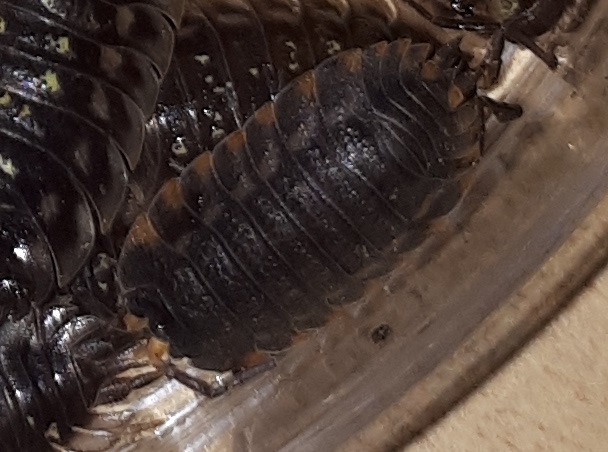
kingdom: Animalia
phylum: Arthropoda
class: Malacostraca
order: Isopoda
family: Trachelipodidae
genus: Trachelipus
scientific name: Trachelipus ratzeburgii
